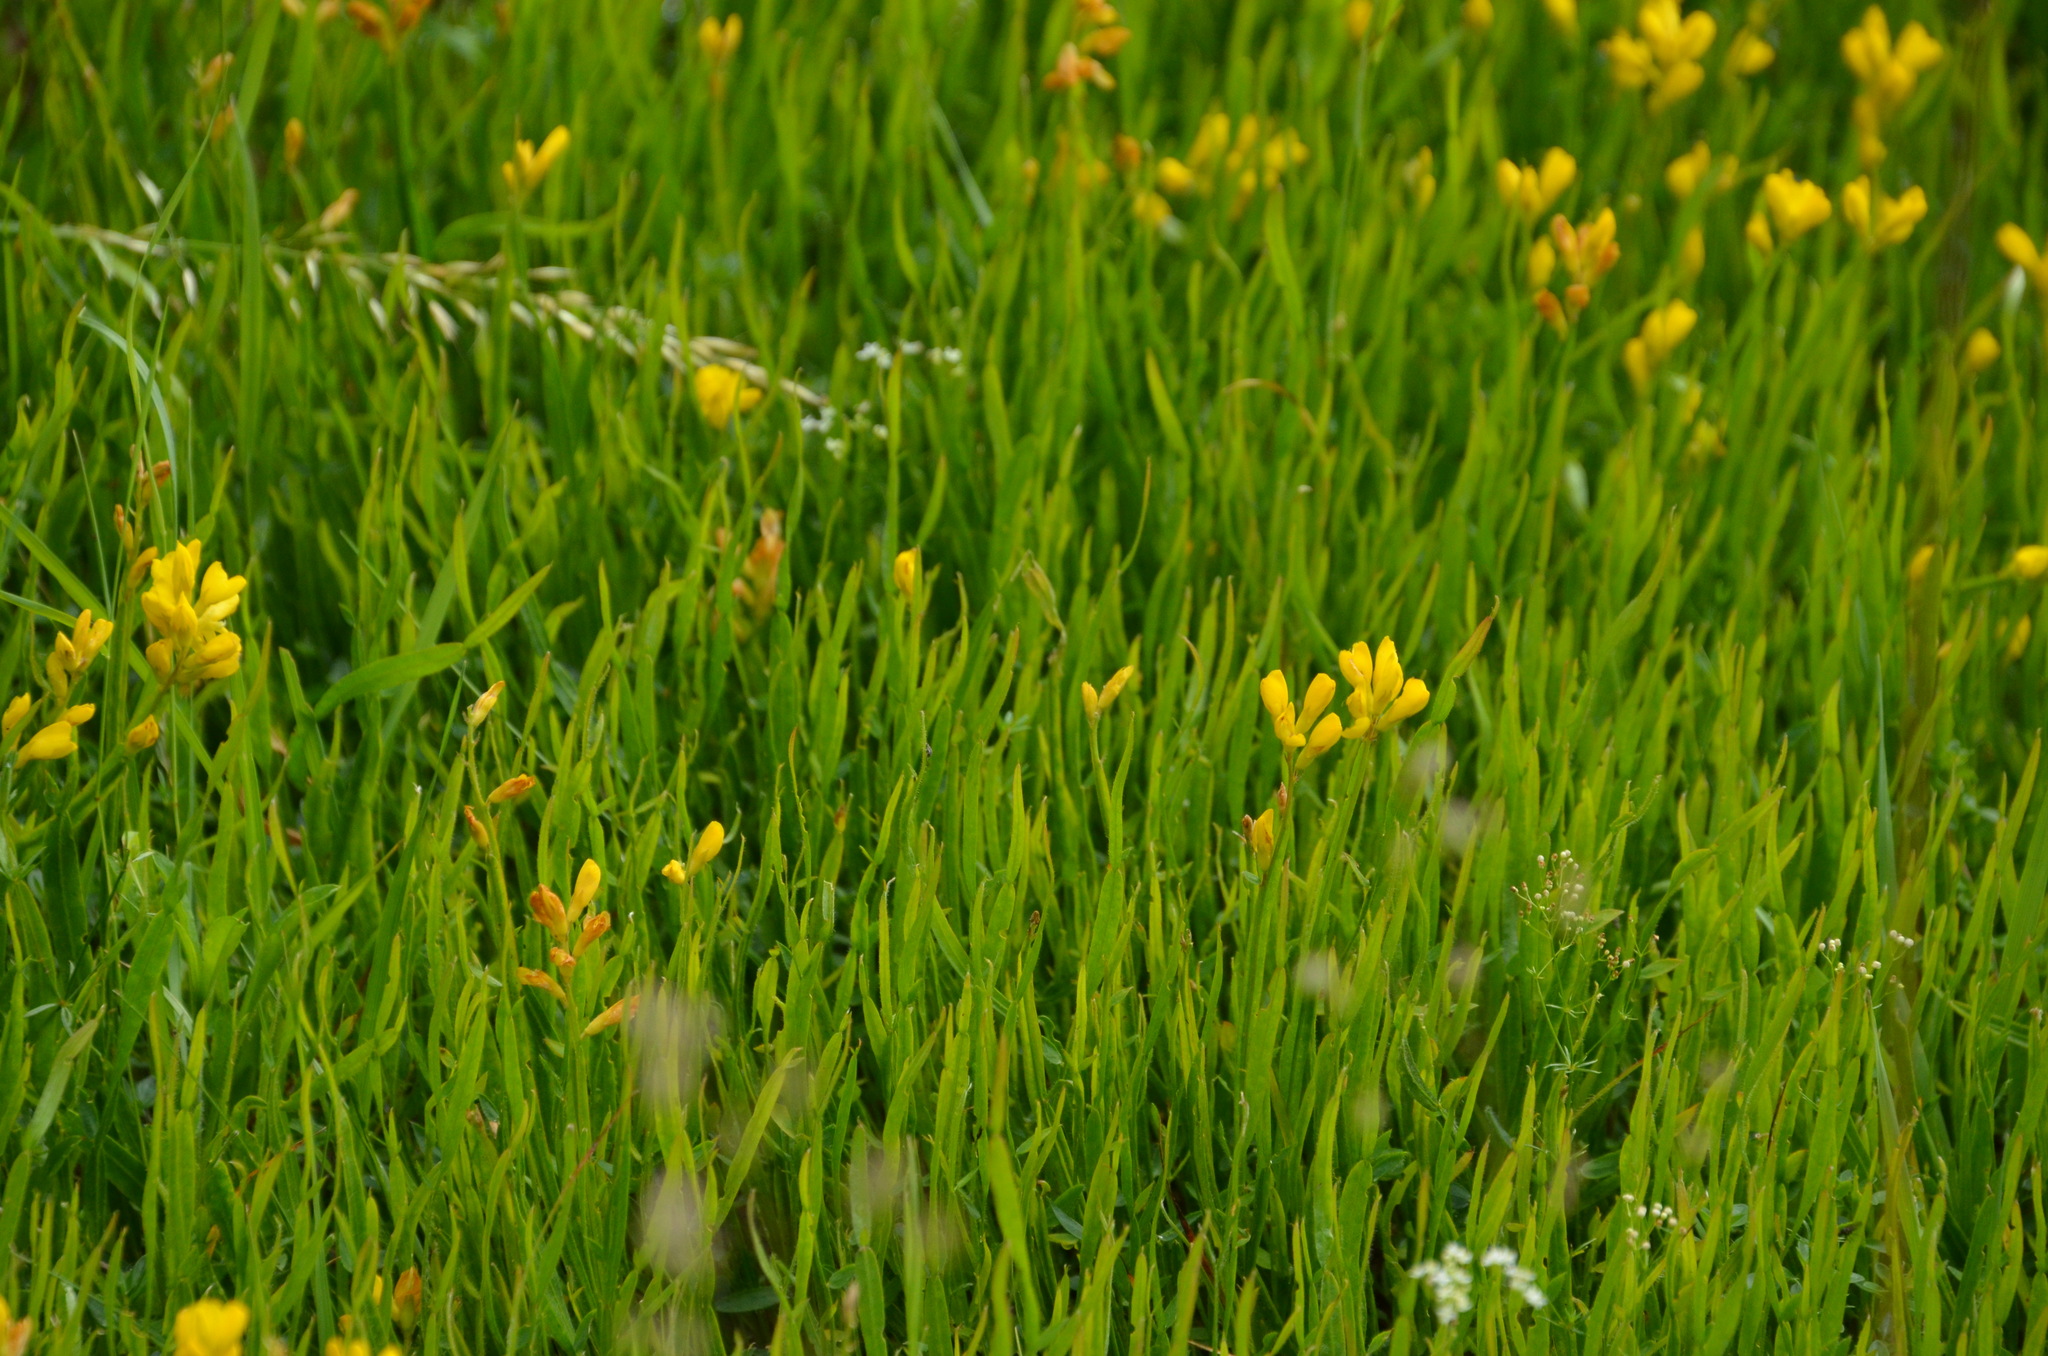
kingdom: Plantae
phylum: Tracheophyta
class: Magnoliopsida
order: Fabales
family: Fabaceae
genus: Genista
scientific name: Genista sagittalis
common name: Winged greenweed
